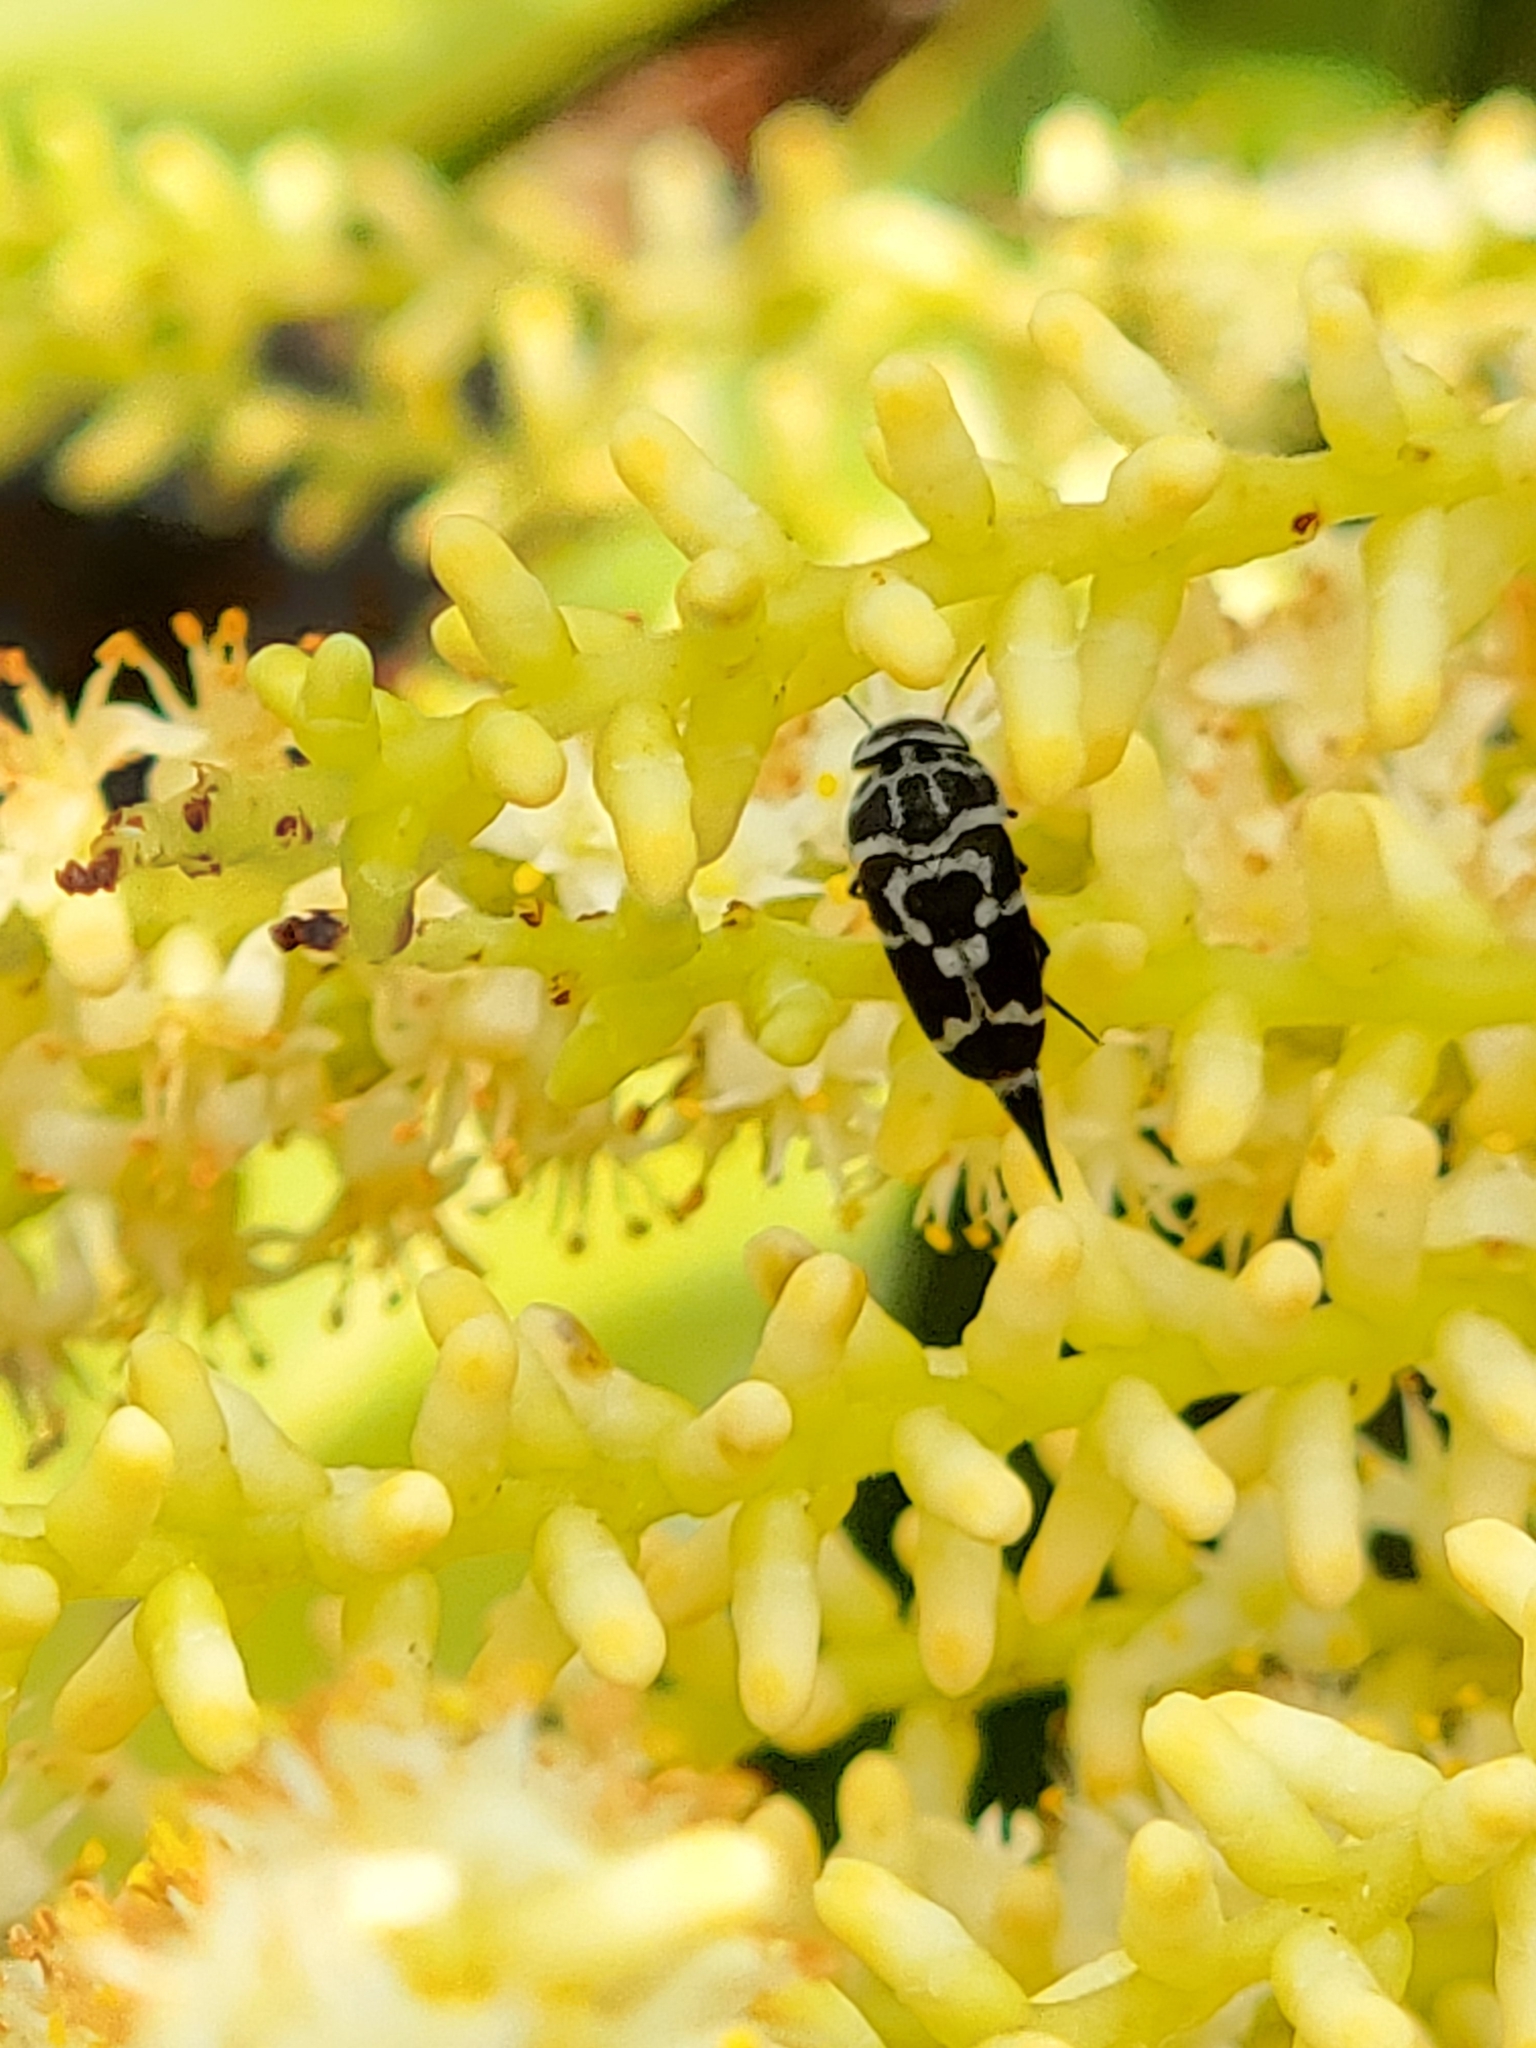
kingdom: Animalia
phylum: Arthropoda
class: Insecta
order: Coleoptera
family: Mordellidae
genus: Mordella
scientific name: Mordella knulli
